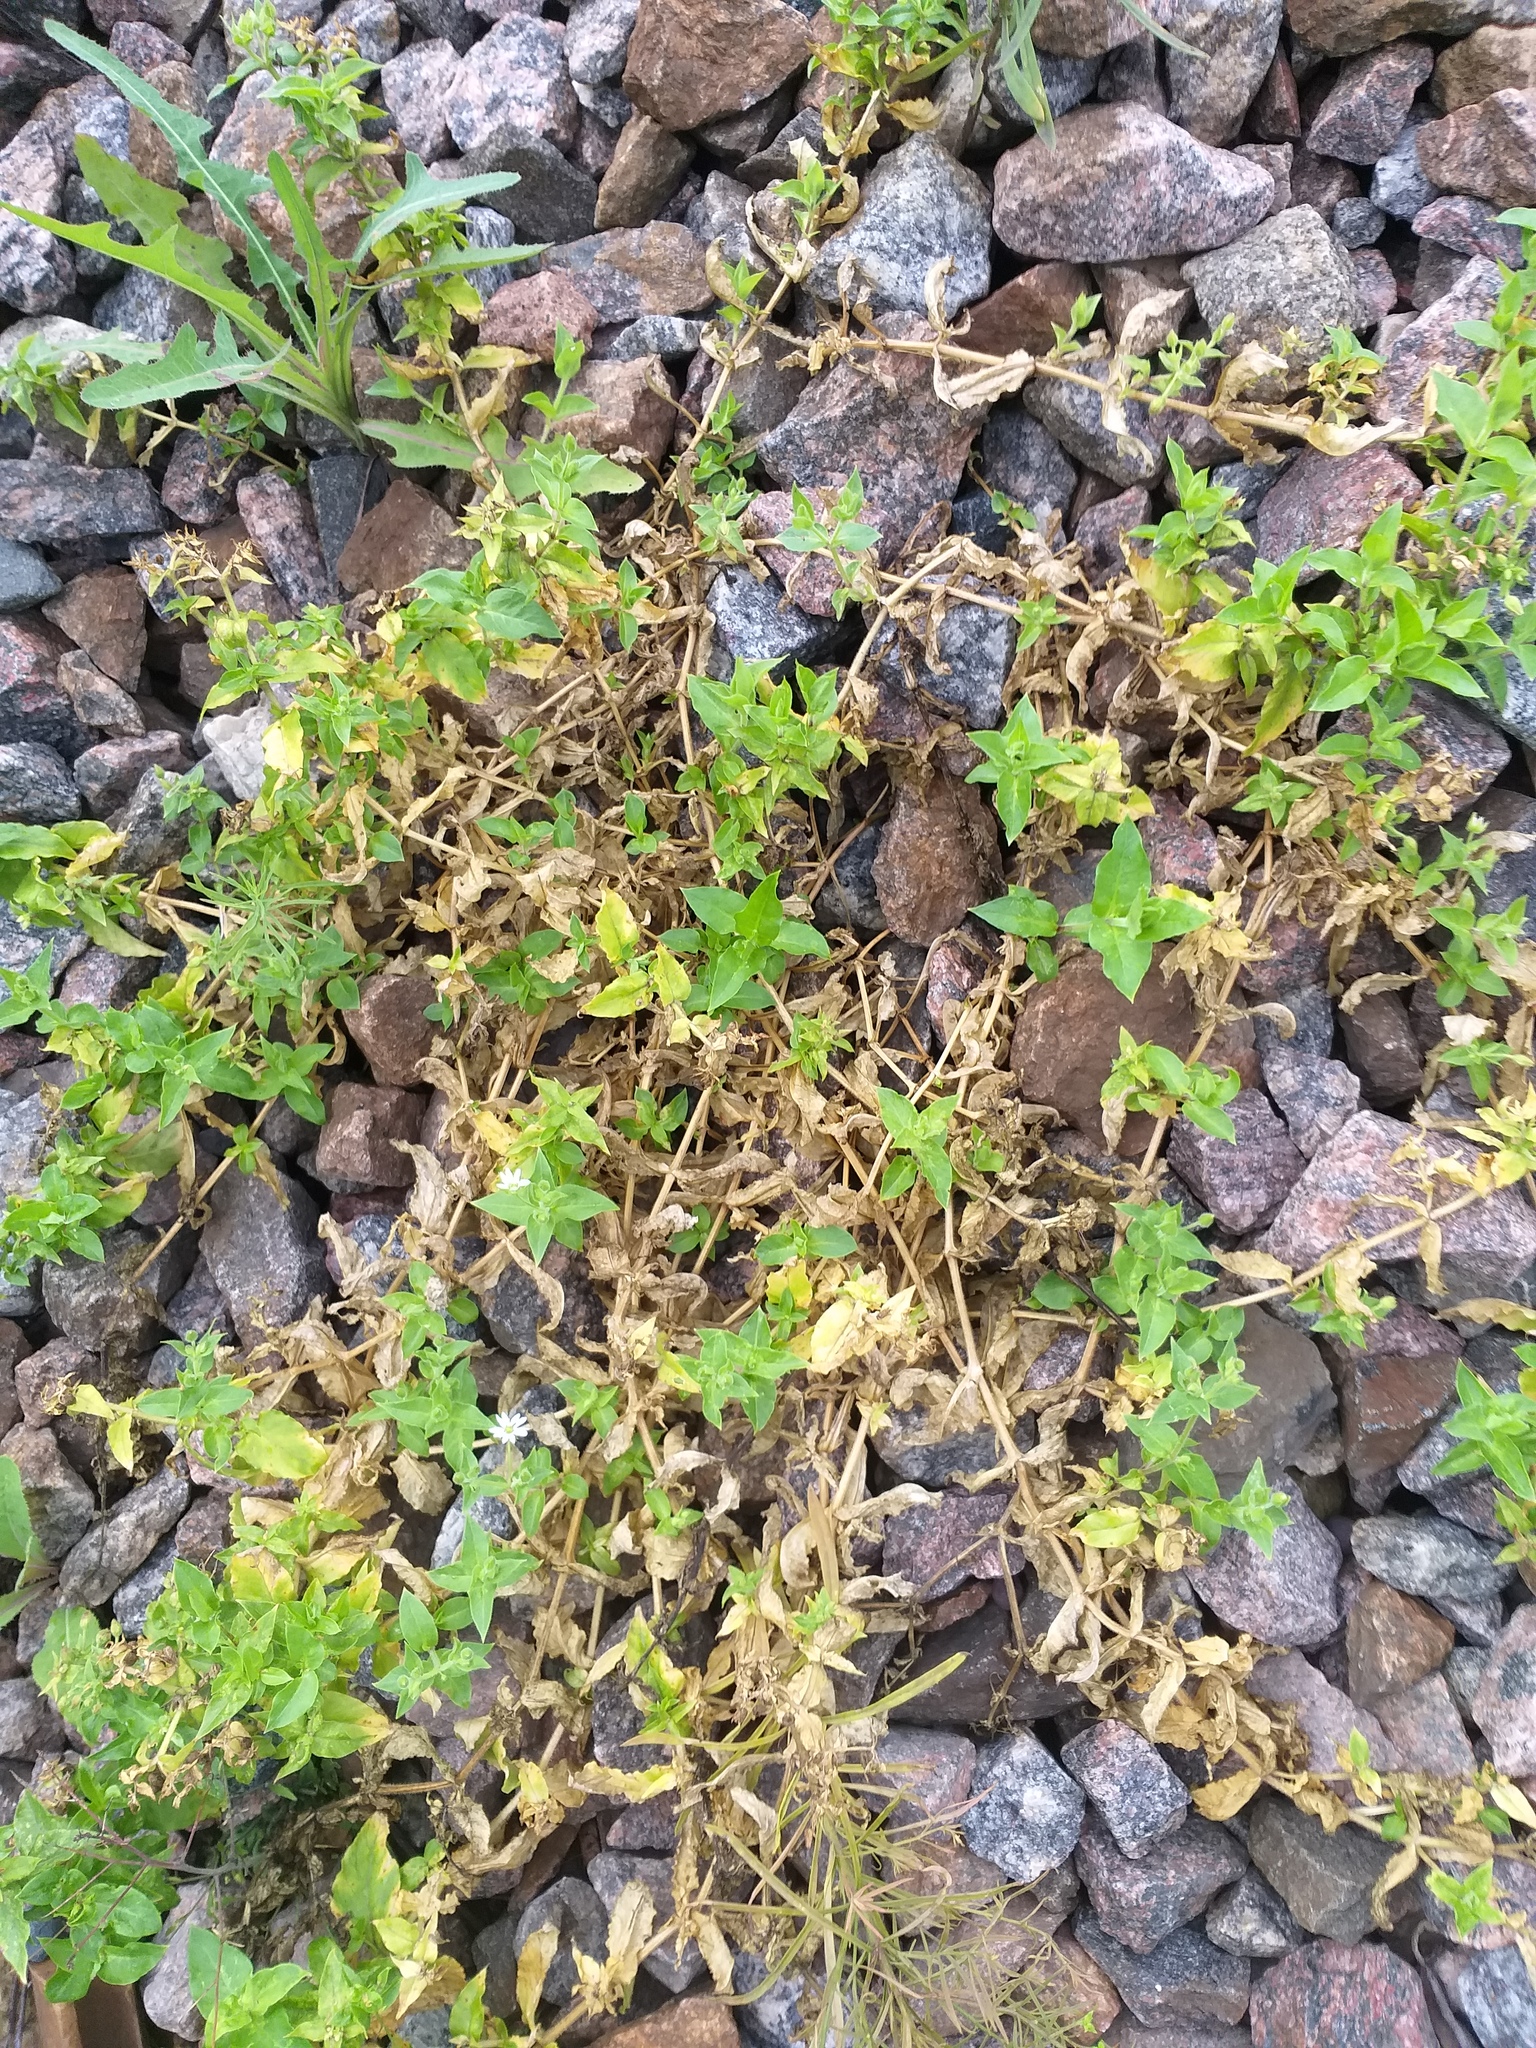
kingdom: Plantae
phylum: Tracheophyta
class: Magnoliopsida
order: Caryophyllales
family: Caryophyllaceae
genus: Stellaria
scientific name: Stellaria aquatica
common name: Water chickweed
